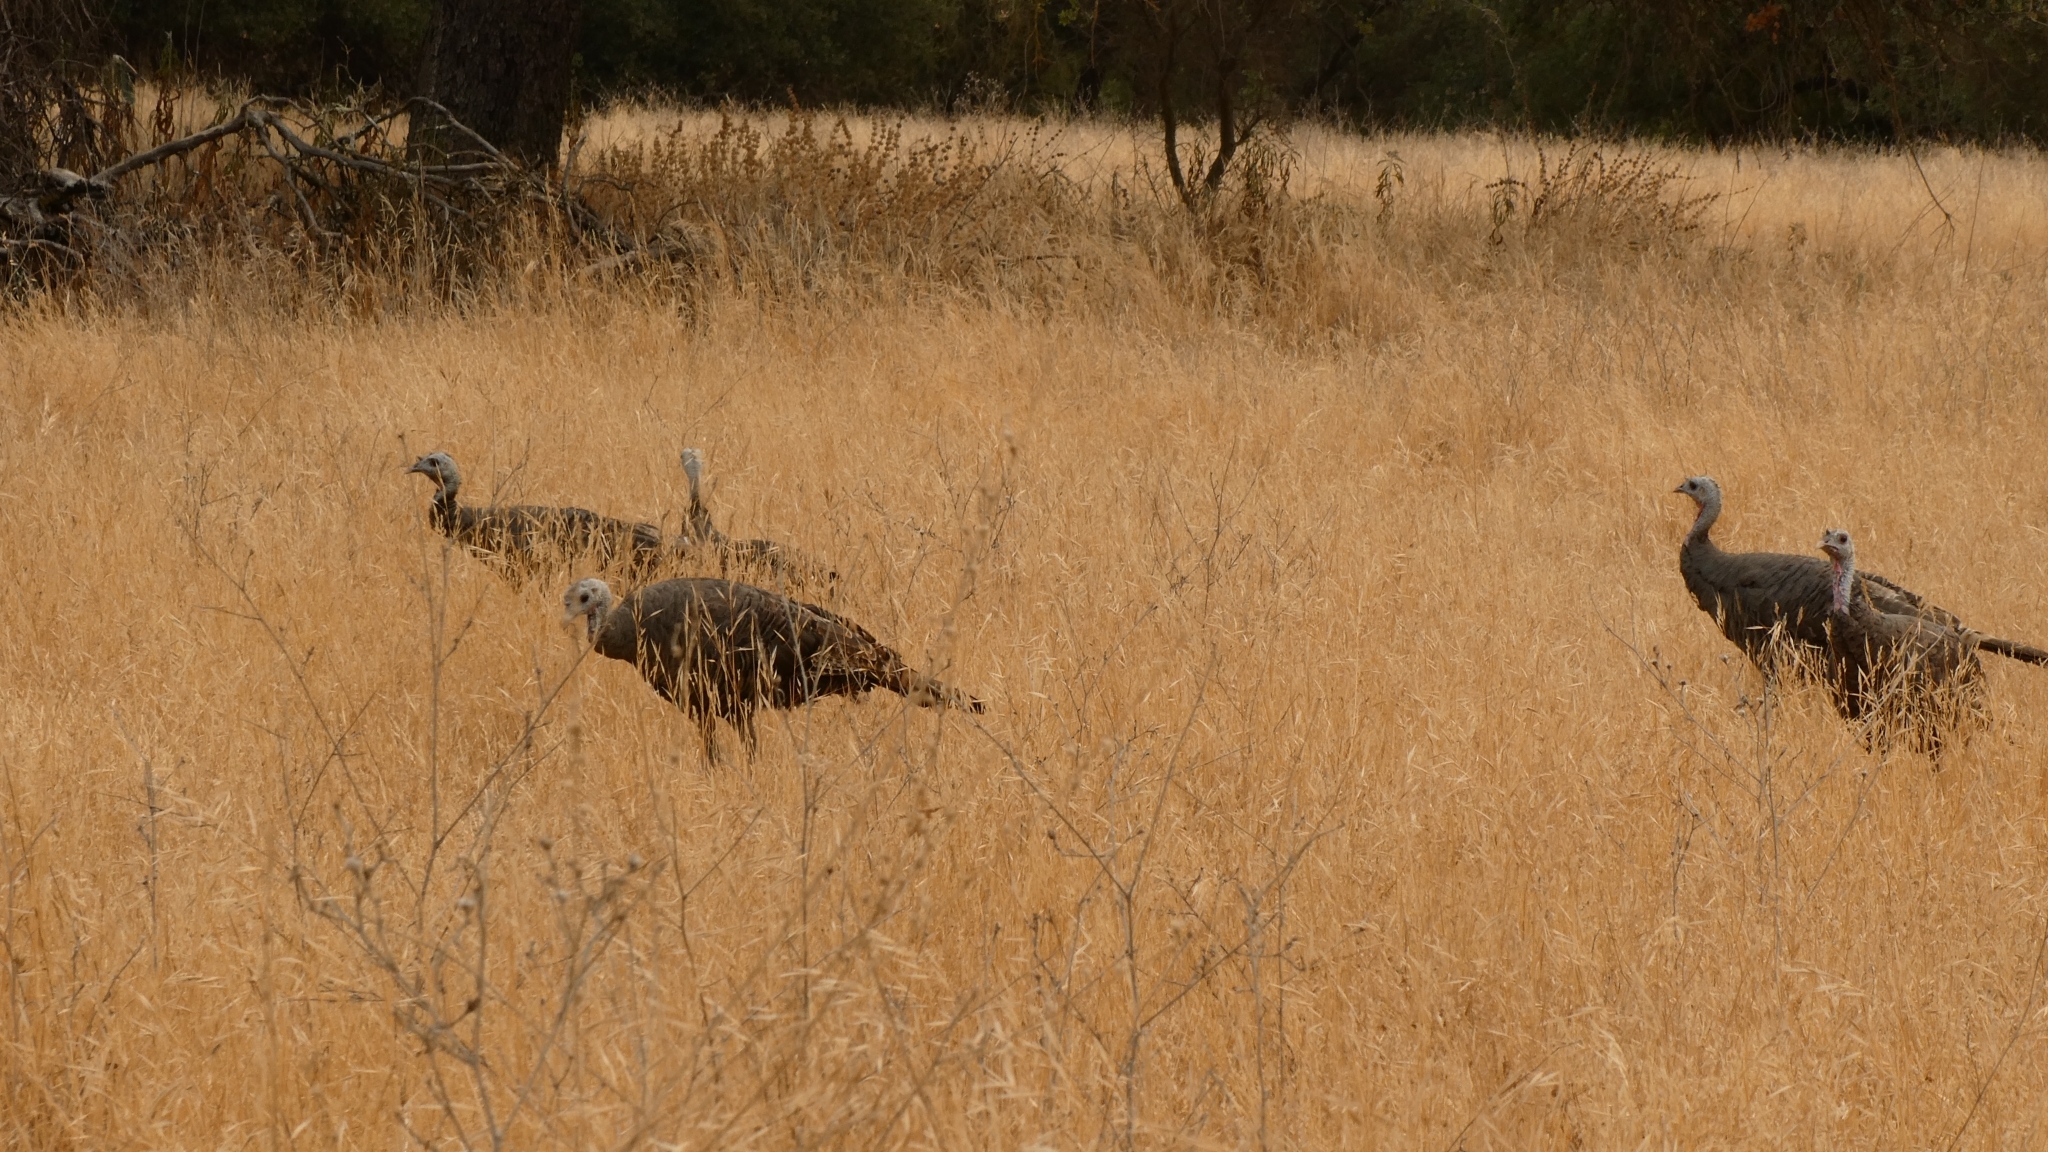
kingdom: Animalia
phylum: Chordata
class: Aves
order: Galliformes
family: Phasianidae
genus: Meleagris
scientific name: Meleagris gallopavo
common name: Wild turkey
